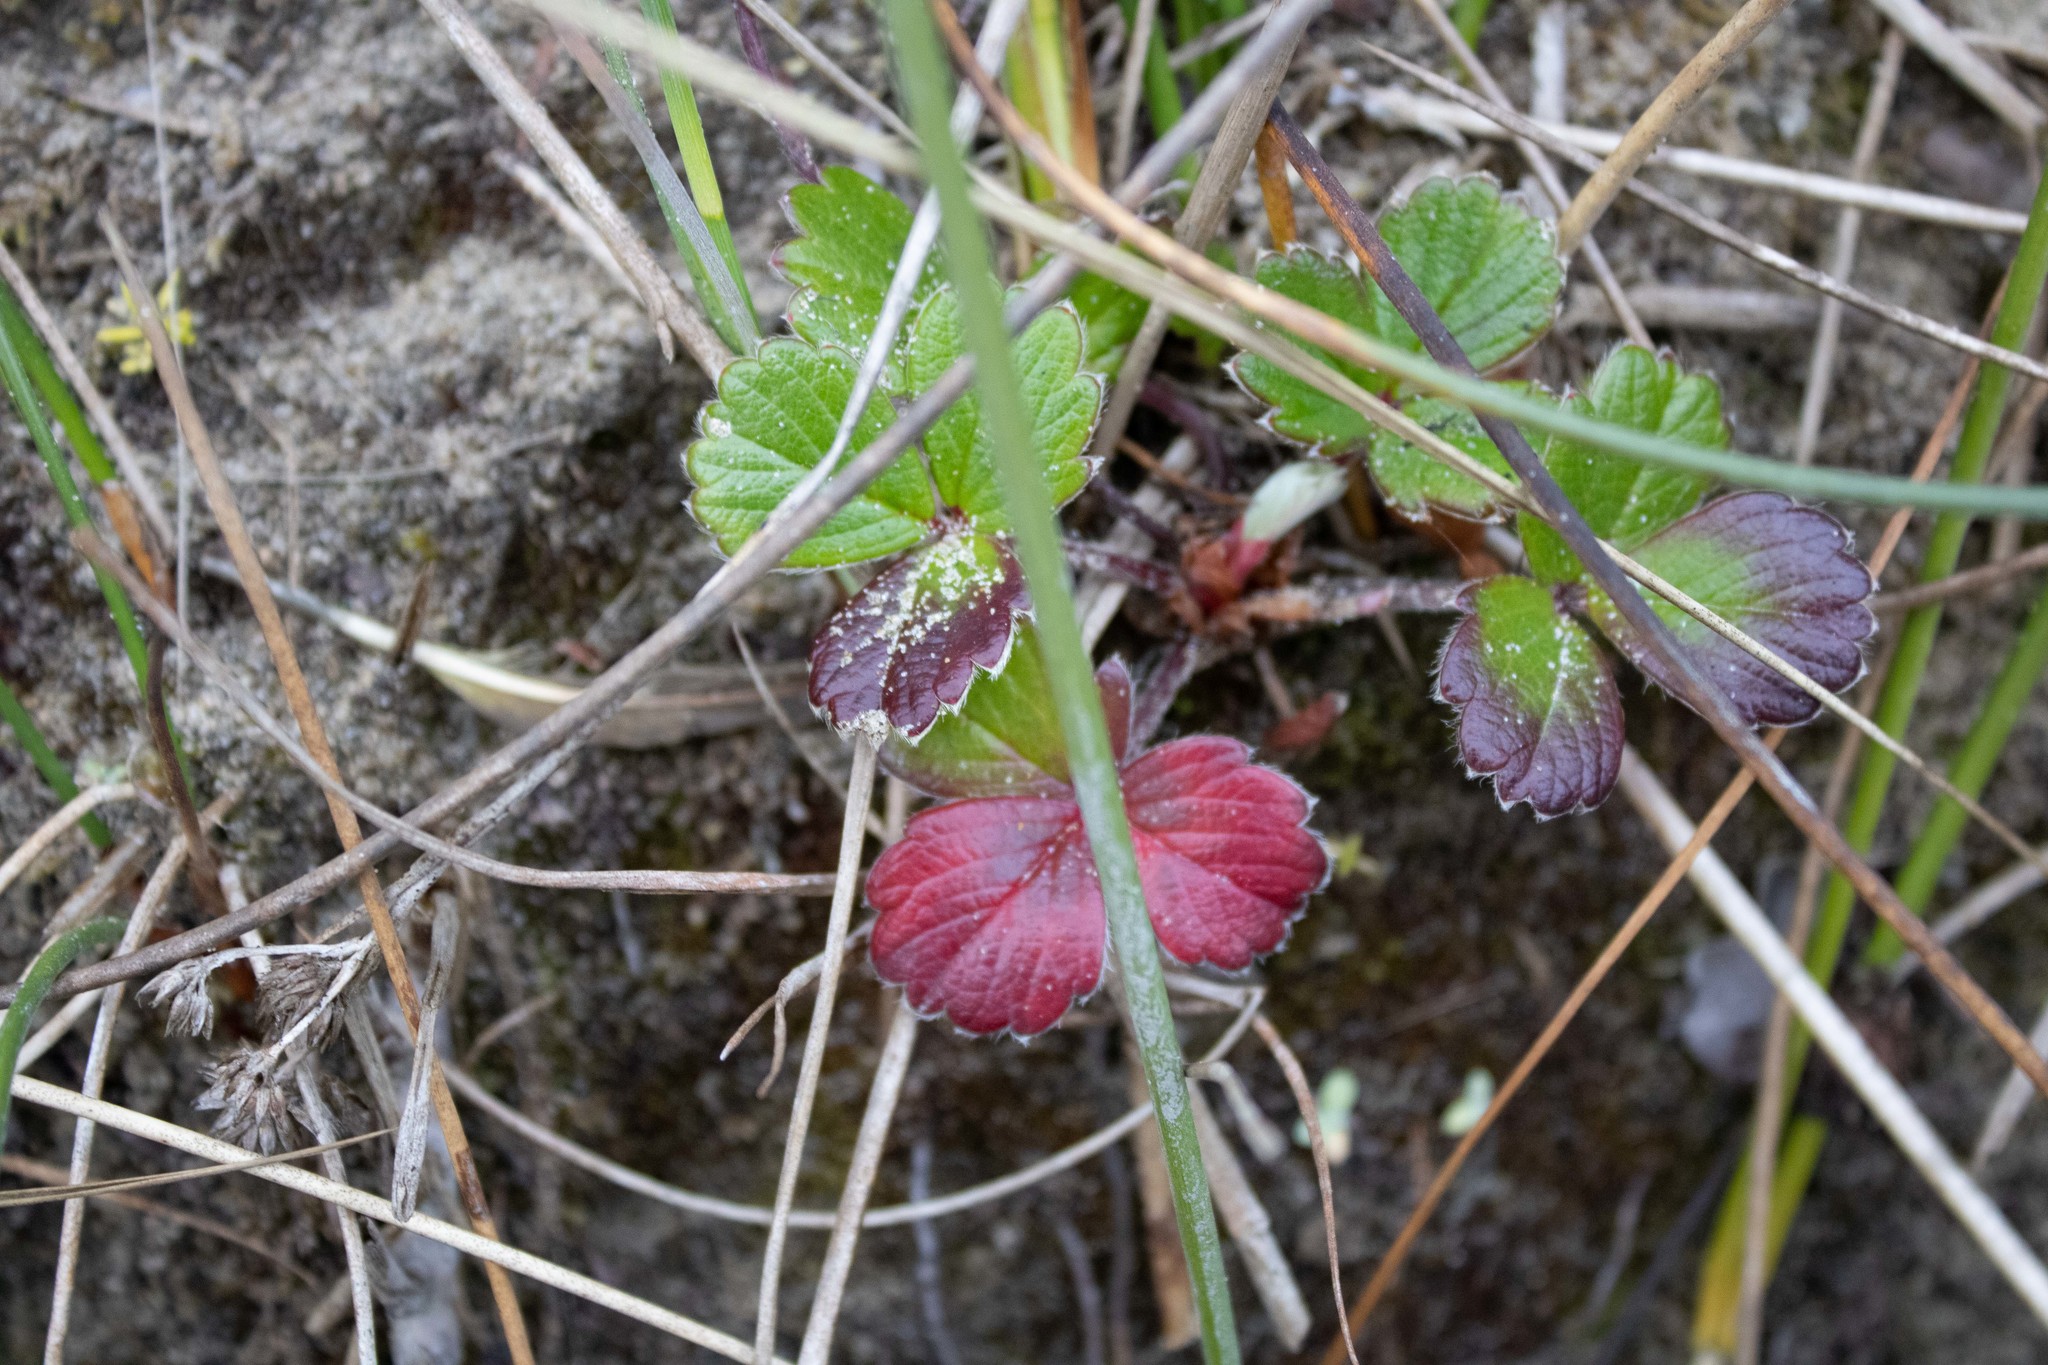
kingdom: Plantae
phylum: Tracheophyta
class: Magnoliopsida
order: Rosales
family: Rosaceae
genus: Fragaria
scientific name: Fragaria chiloensis
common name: Beach strawberry
